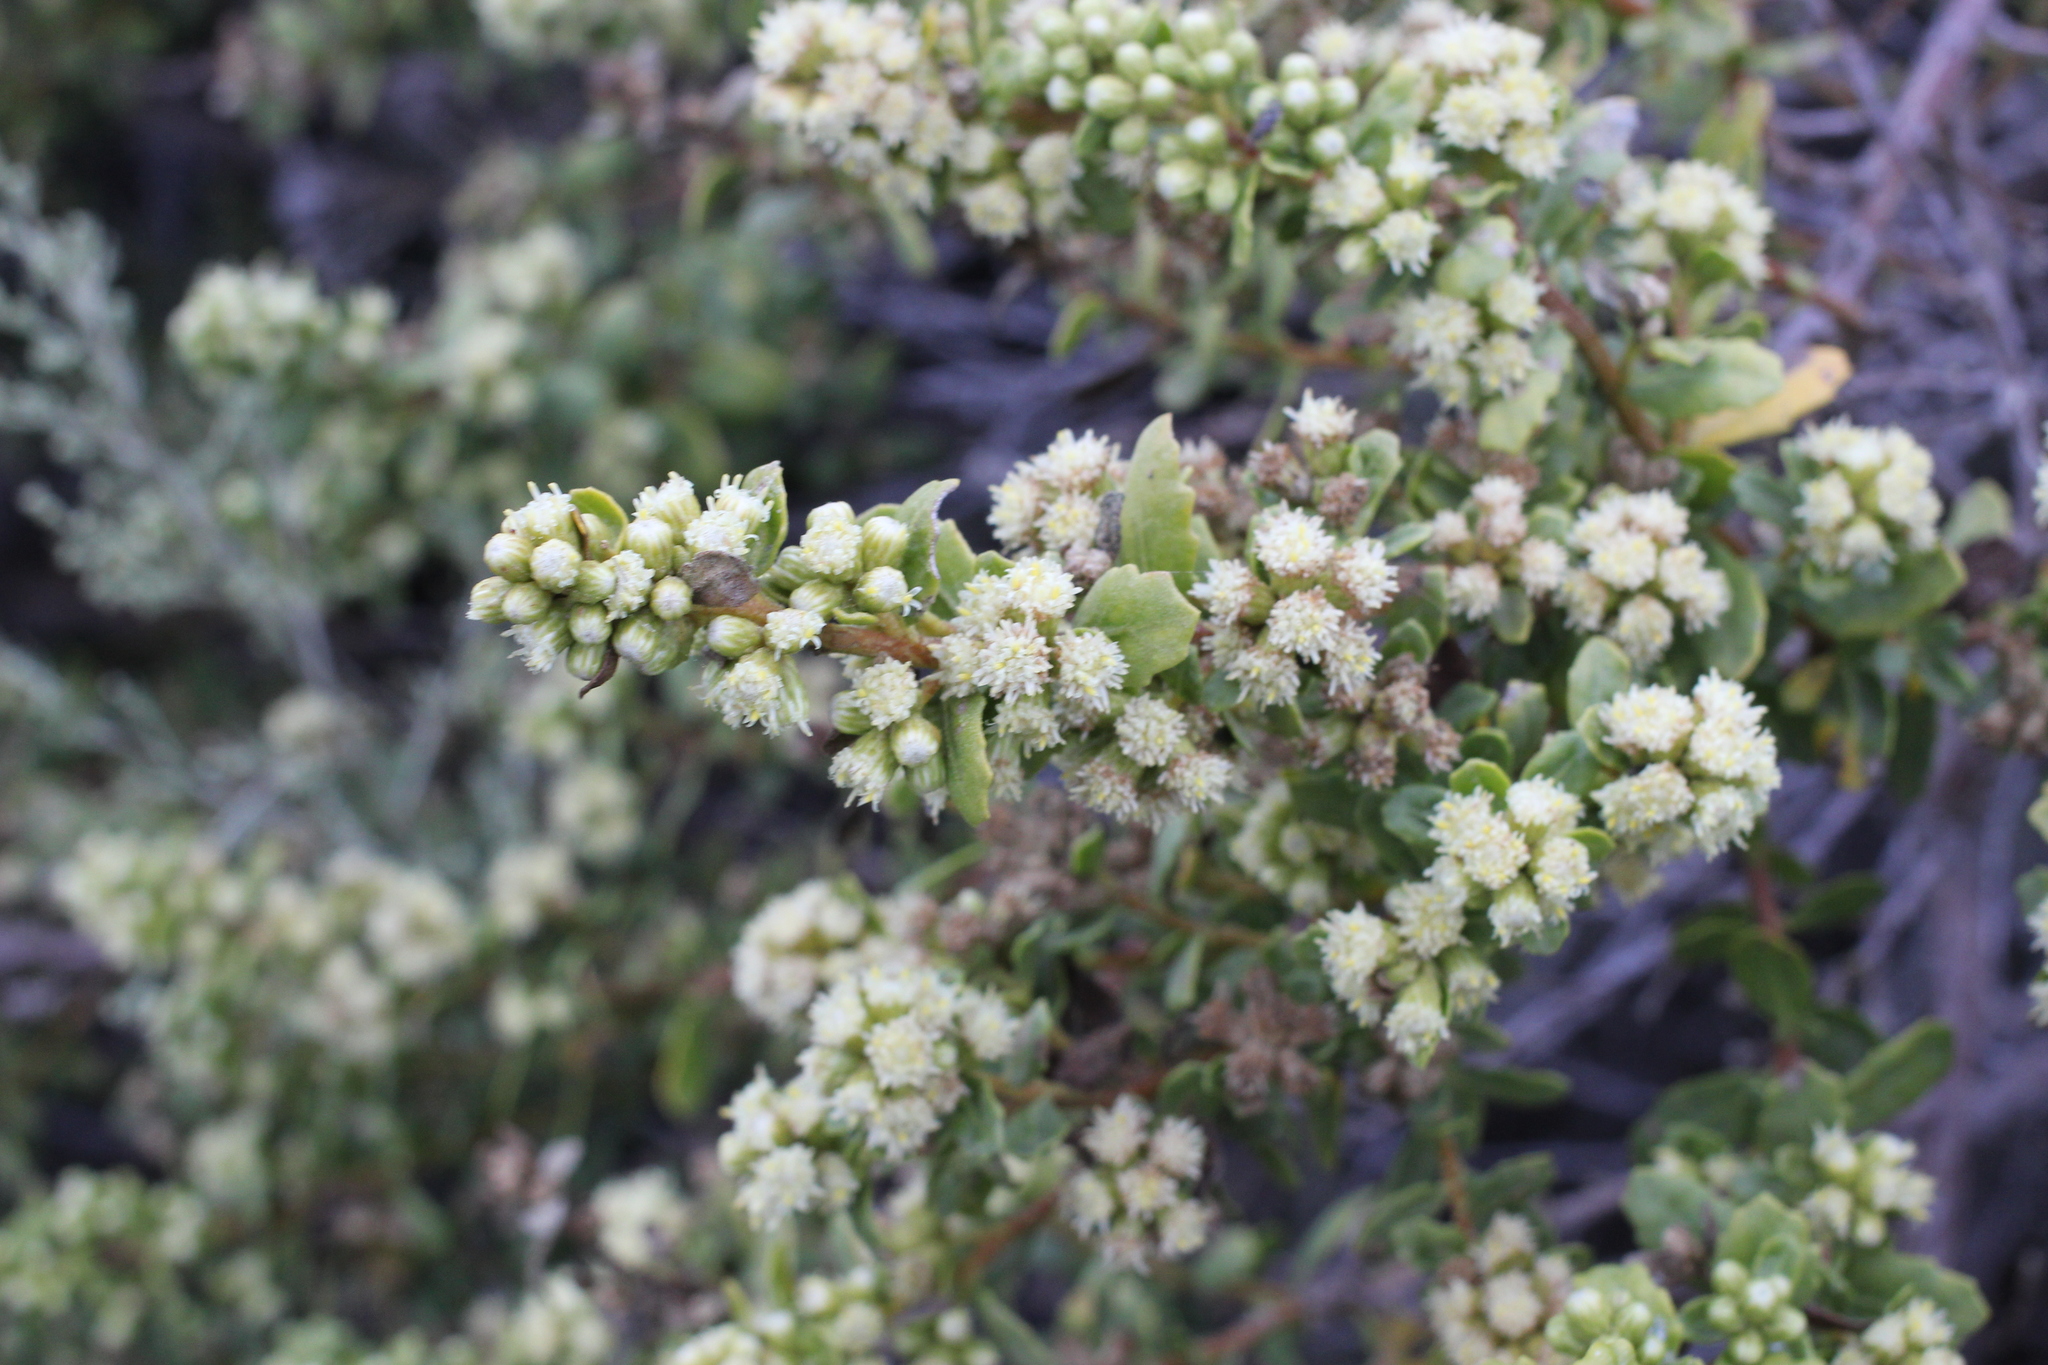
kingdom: Plantae
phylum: Tracheophyta
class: Magnoliopsida
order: Asterales
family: Asteraceae
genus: Baccharis
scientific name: Baccharis pilularis
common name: Coyotebrush
